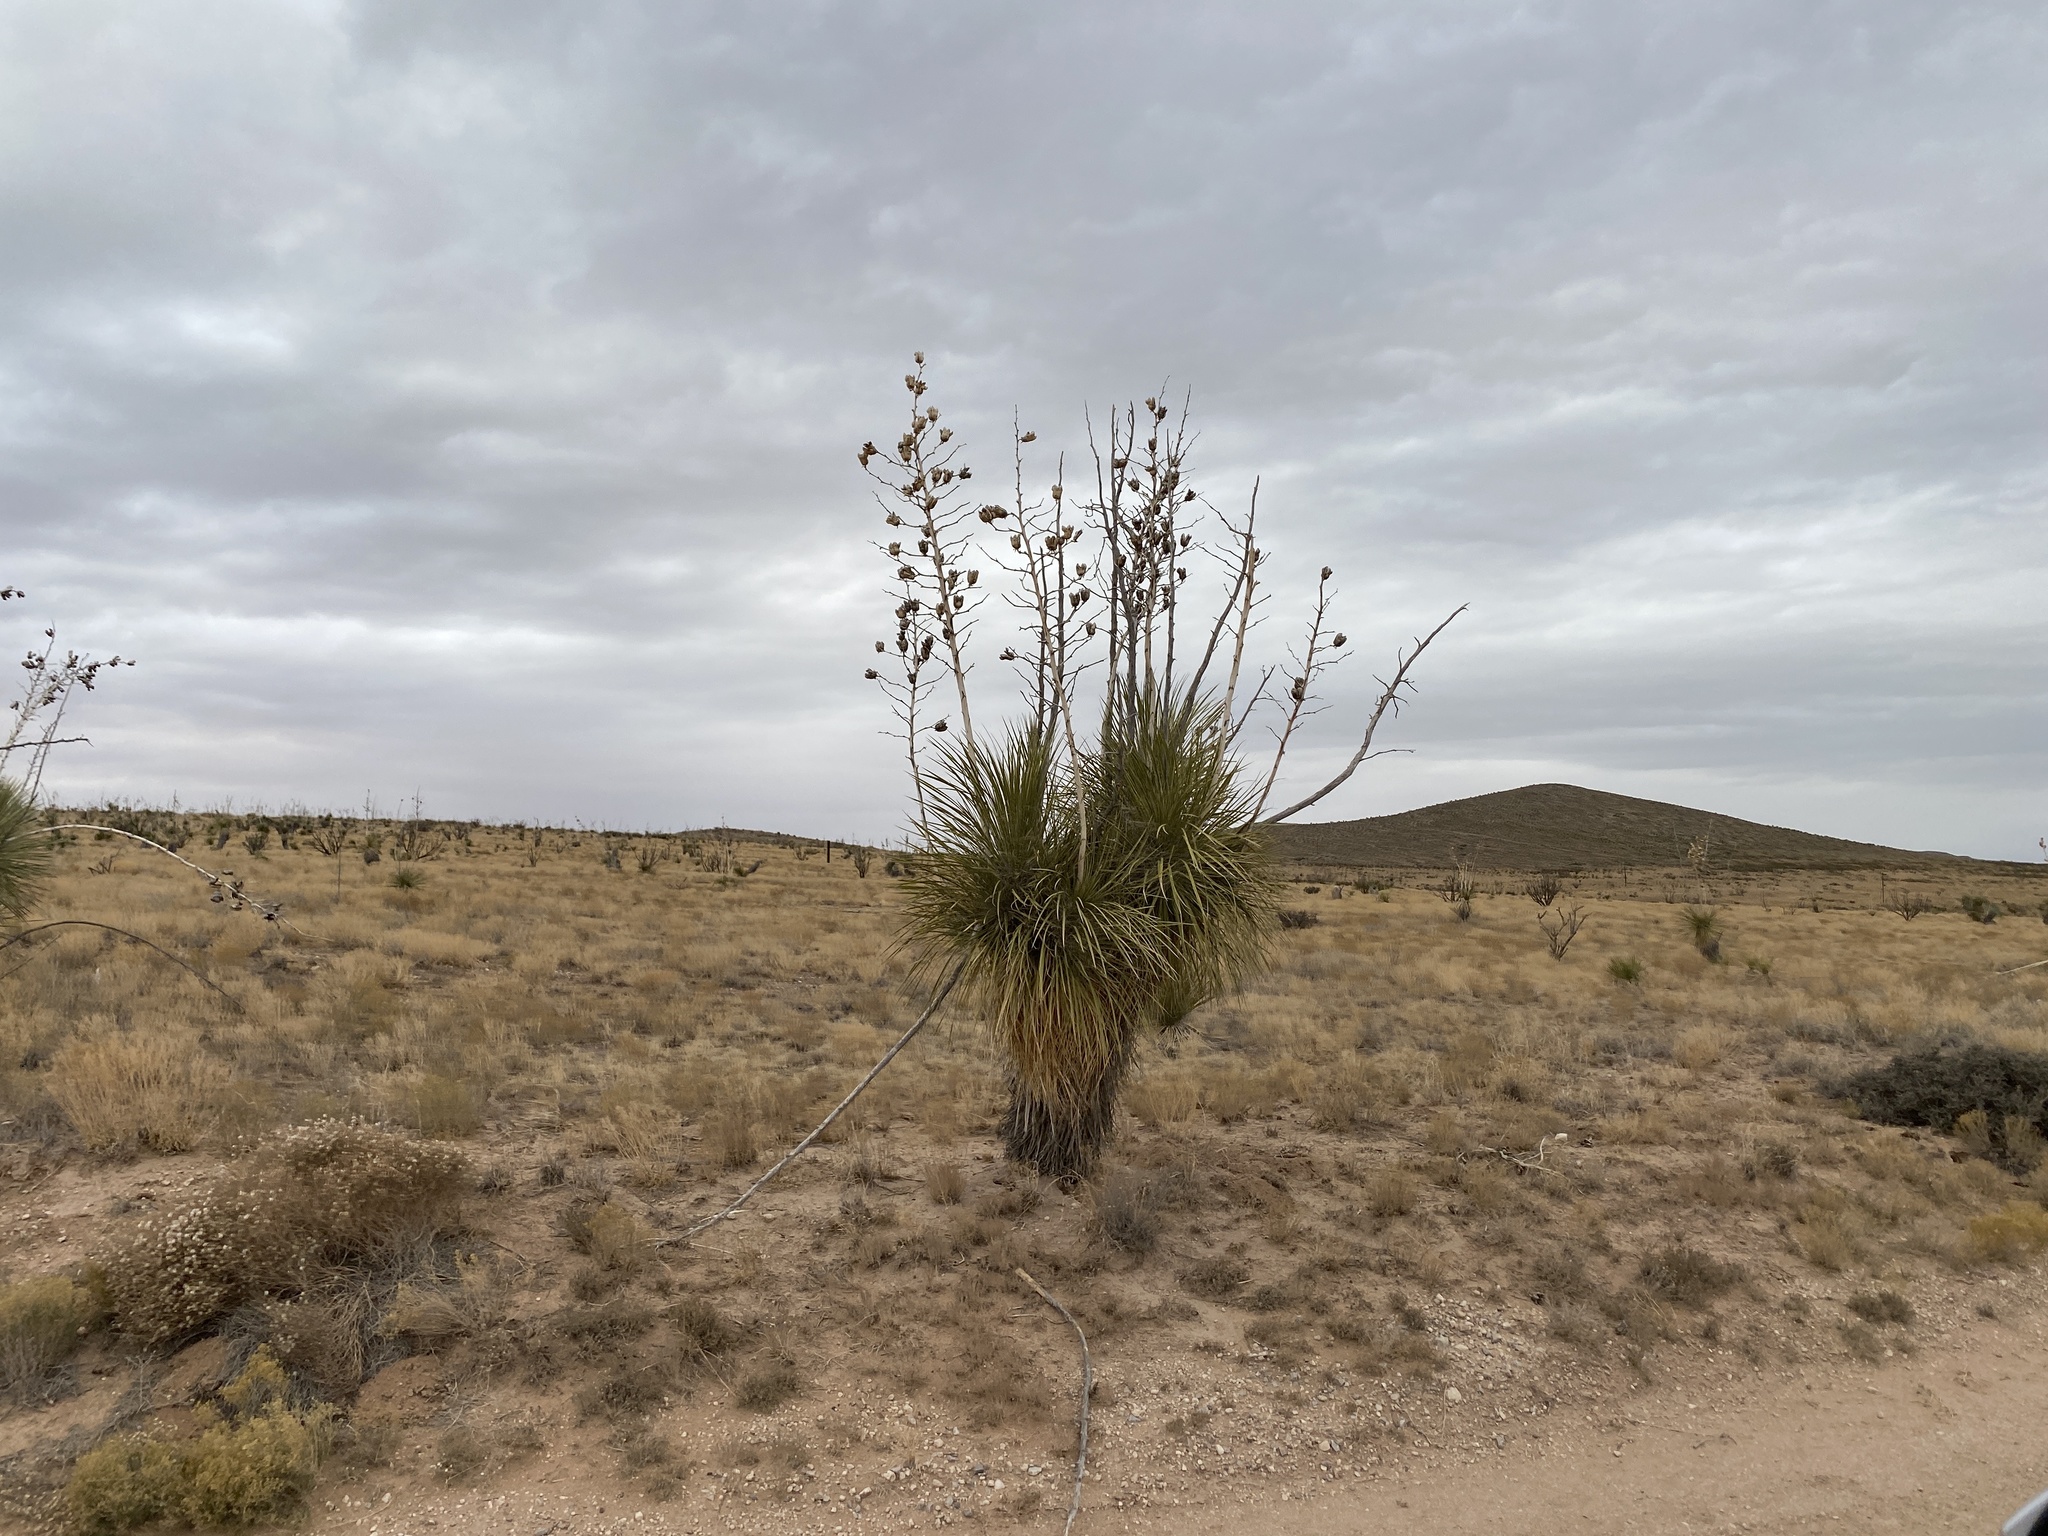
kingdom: Plantae
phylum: Tracheophyta
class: Liliopsida
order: Asparagales
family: Asparagaceae
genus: Yucca
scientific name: Yucca elata
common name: Palmella
